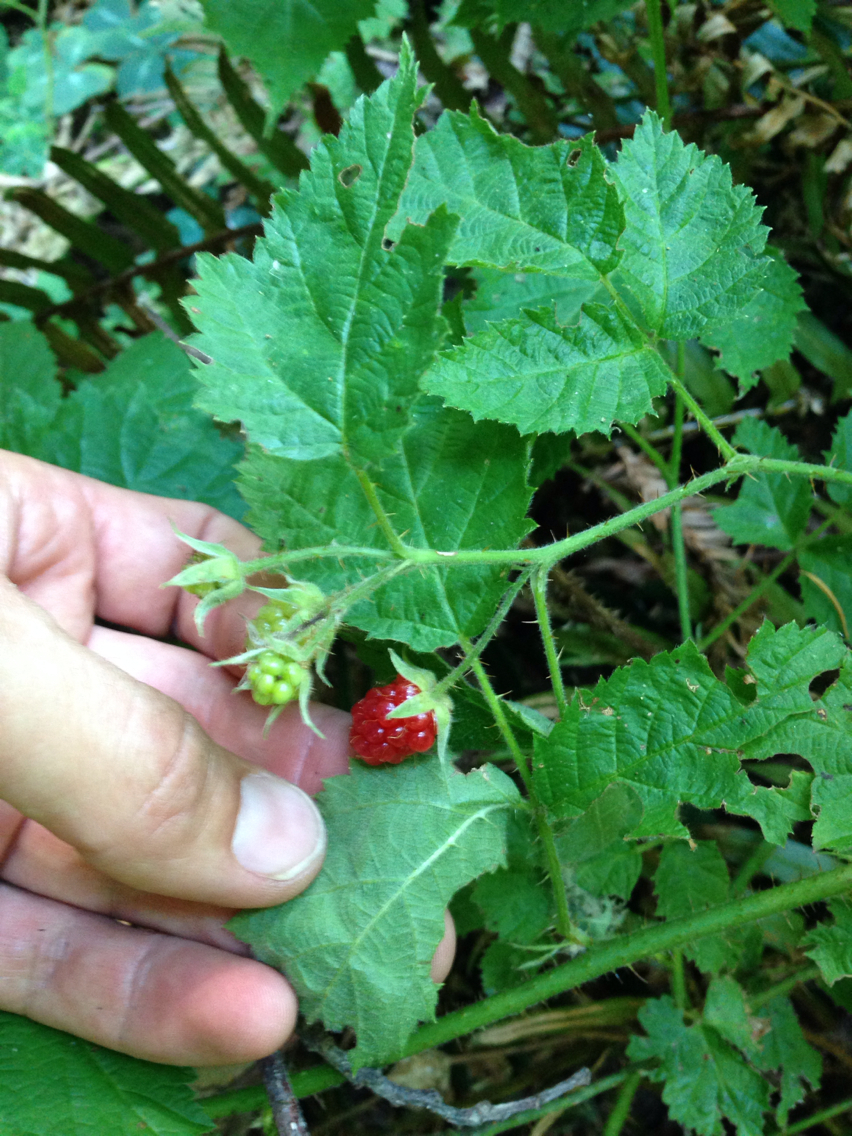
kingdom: Plantae
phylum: Tracheophyta
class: Magnoliopsida
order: Rosales
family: Rosaceae
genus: Rubus
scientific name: Rubus ursinus
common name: Pacific blackberry
